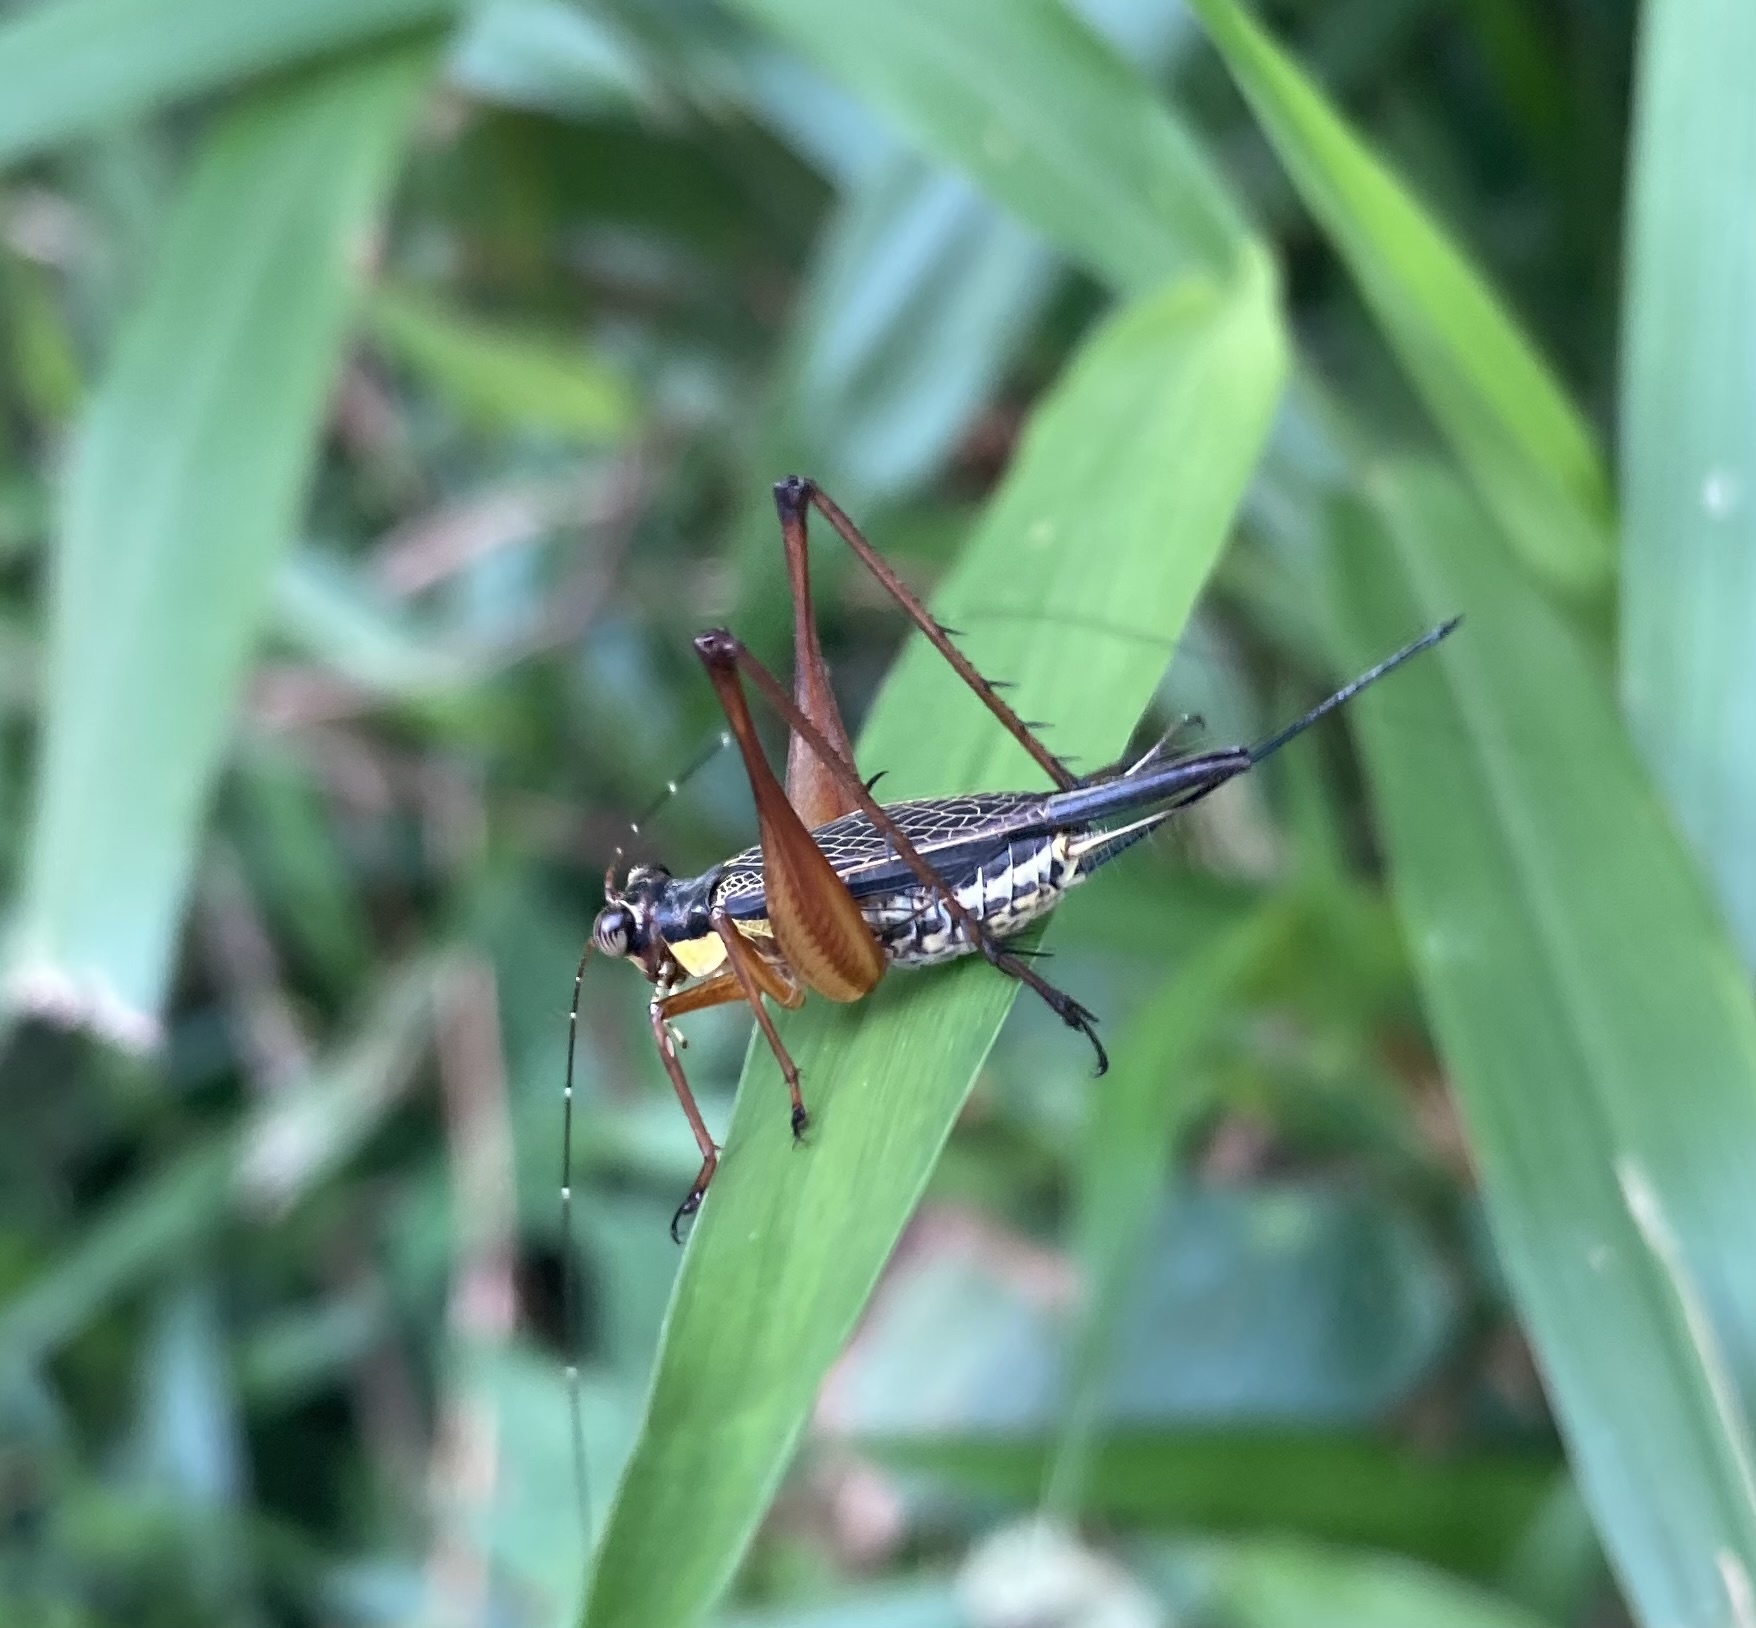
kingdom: Animalia
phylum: Arthropoda
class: Insecta
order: Orthoptera
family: Gryllidae
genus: Nisitrus
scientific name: Nisitrus malaya
